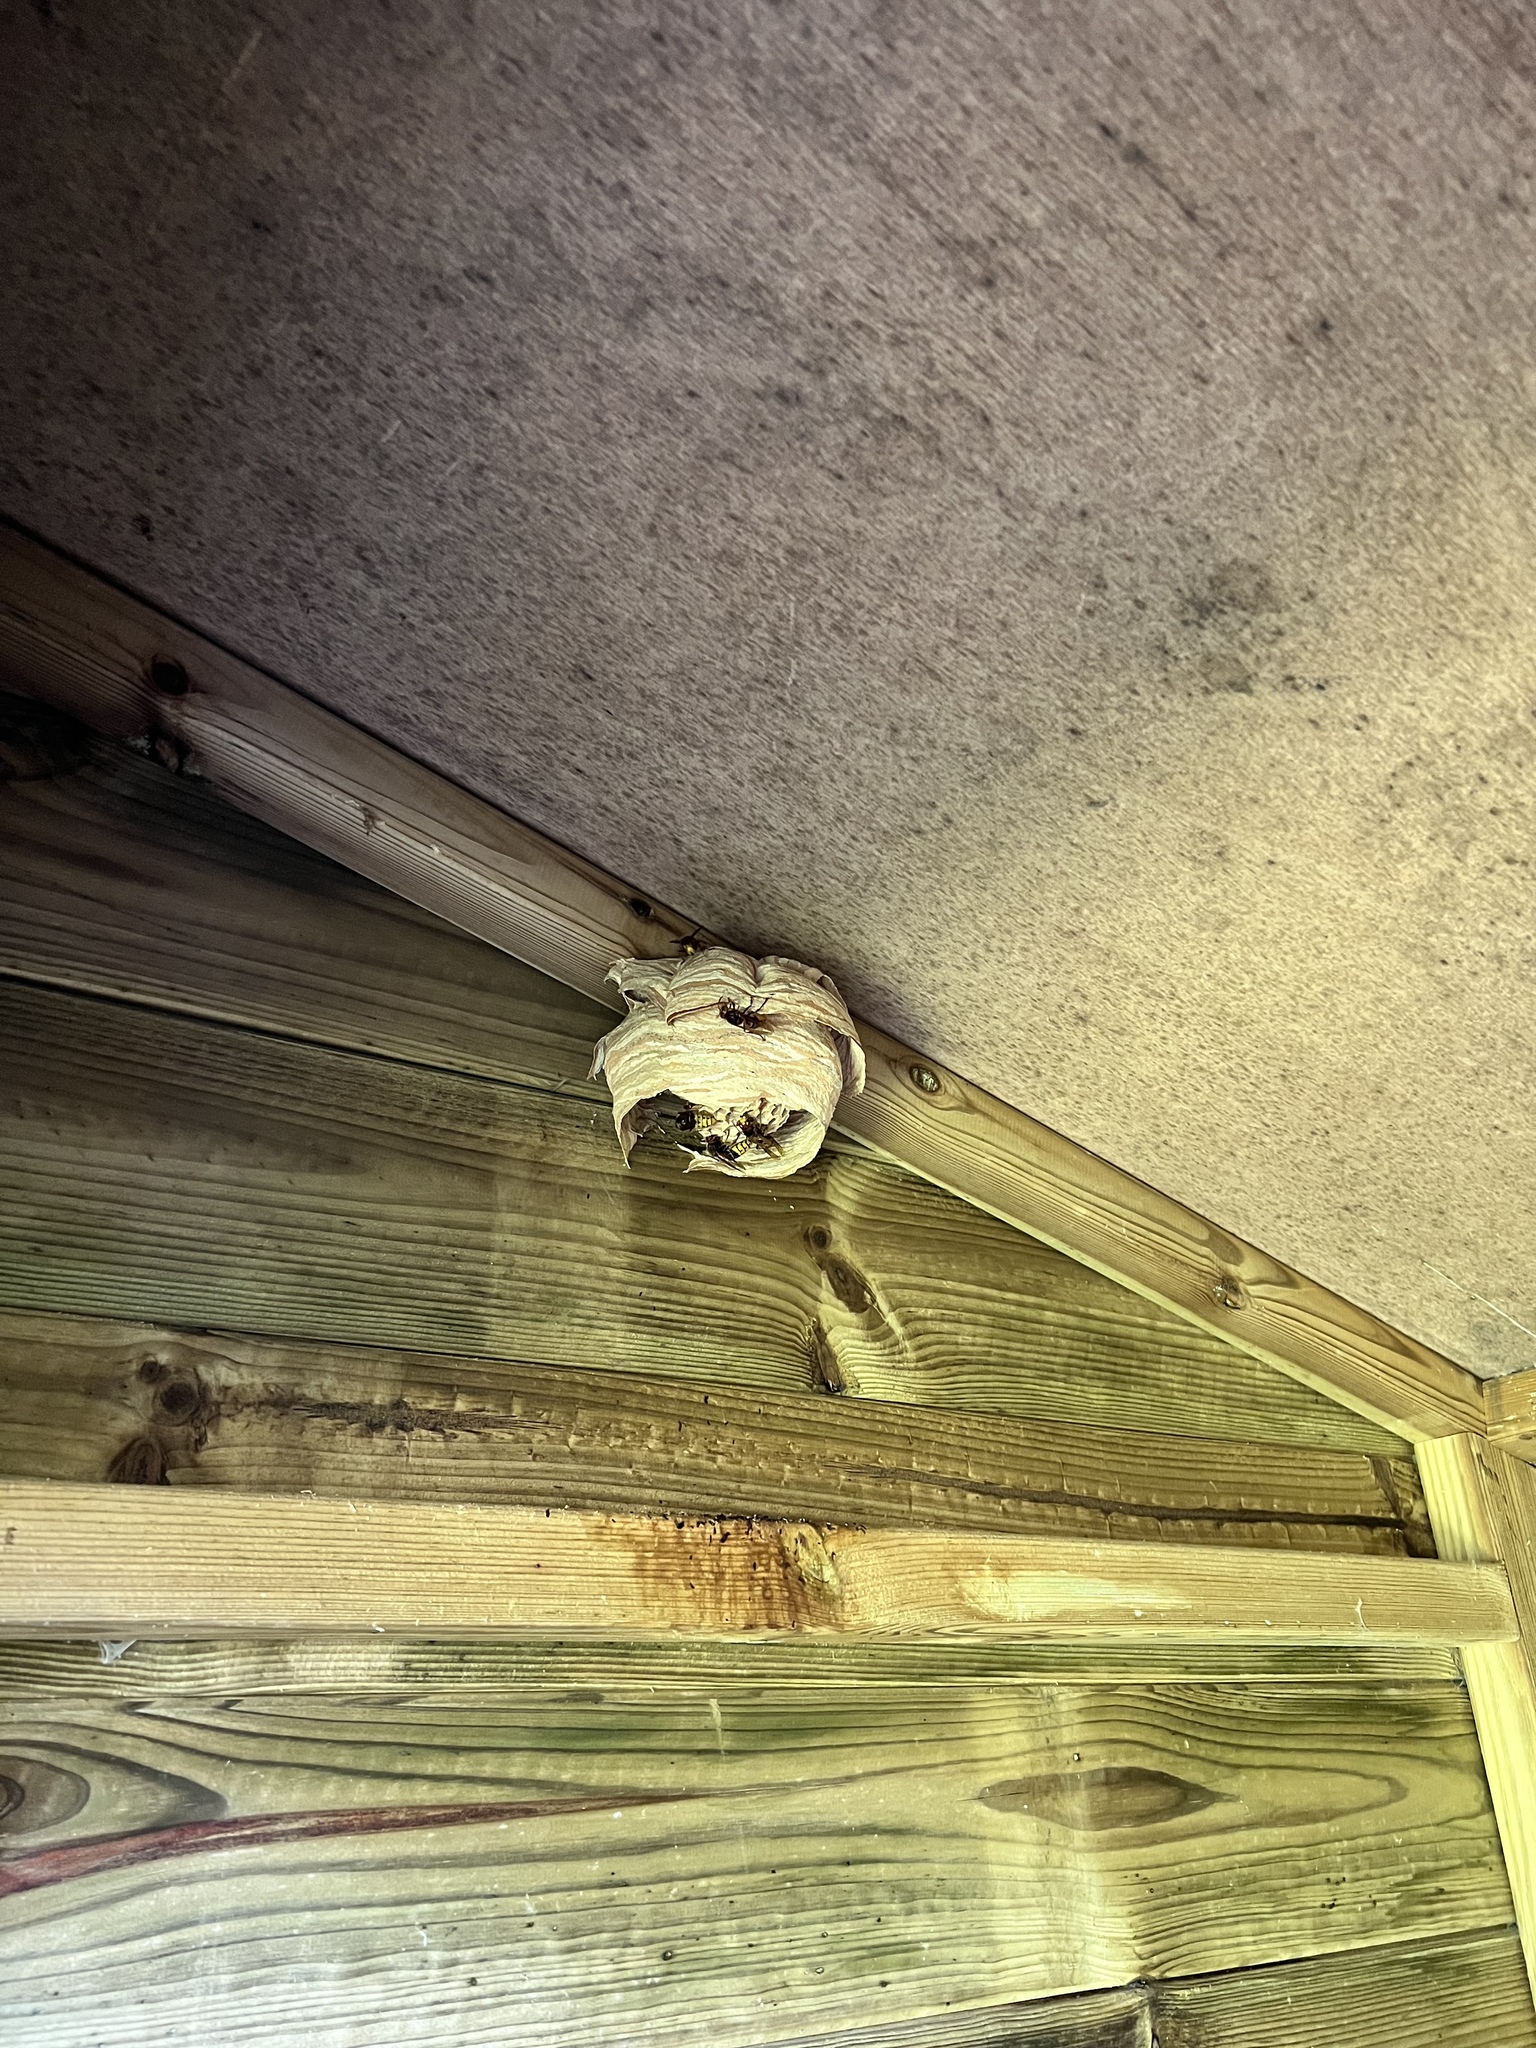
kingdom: Animalia
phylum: Arthropoda
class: Insecta
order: Hymenoptera
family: Vespidae
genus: Vespa
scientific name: Vespa crabro
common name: Hornet
